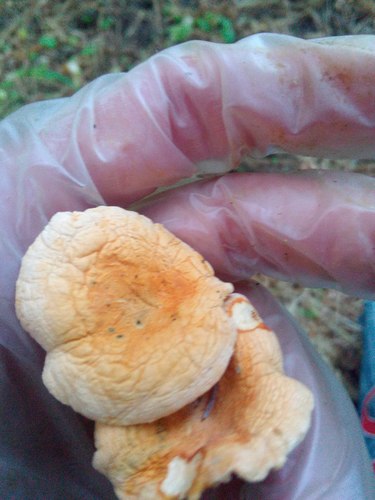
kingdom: Fungi
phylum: Basidiomycota
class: Agaricomycetes
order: Boletales
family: Hygrophoropsidaceae
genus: Hygrophoropsis
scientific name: Hygrophoropsis aurantiaca
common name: False chanterelle
